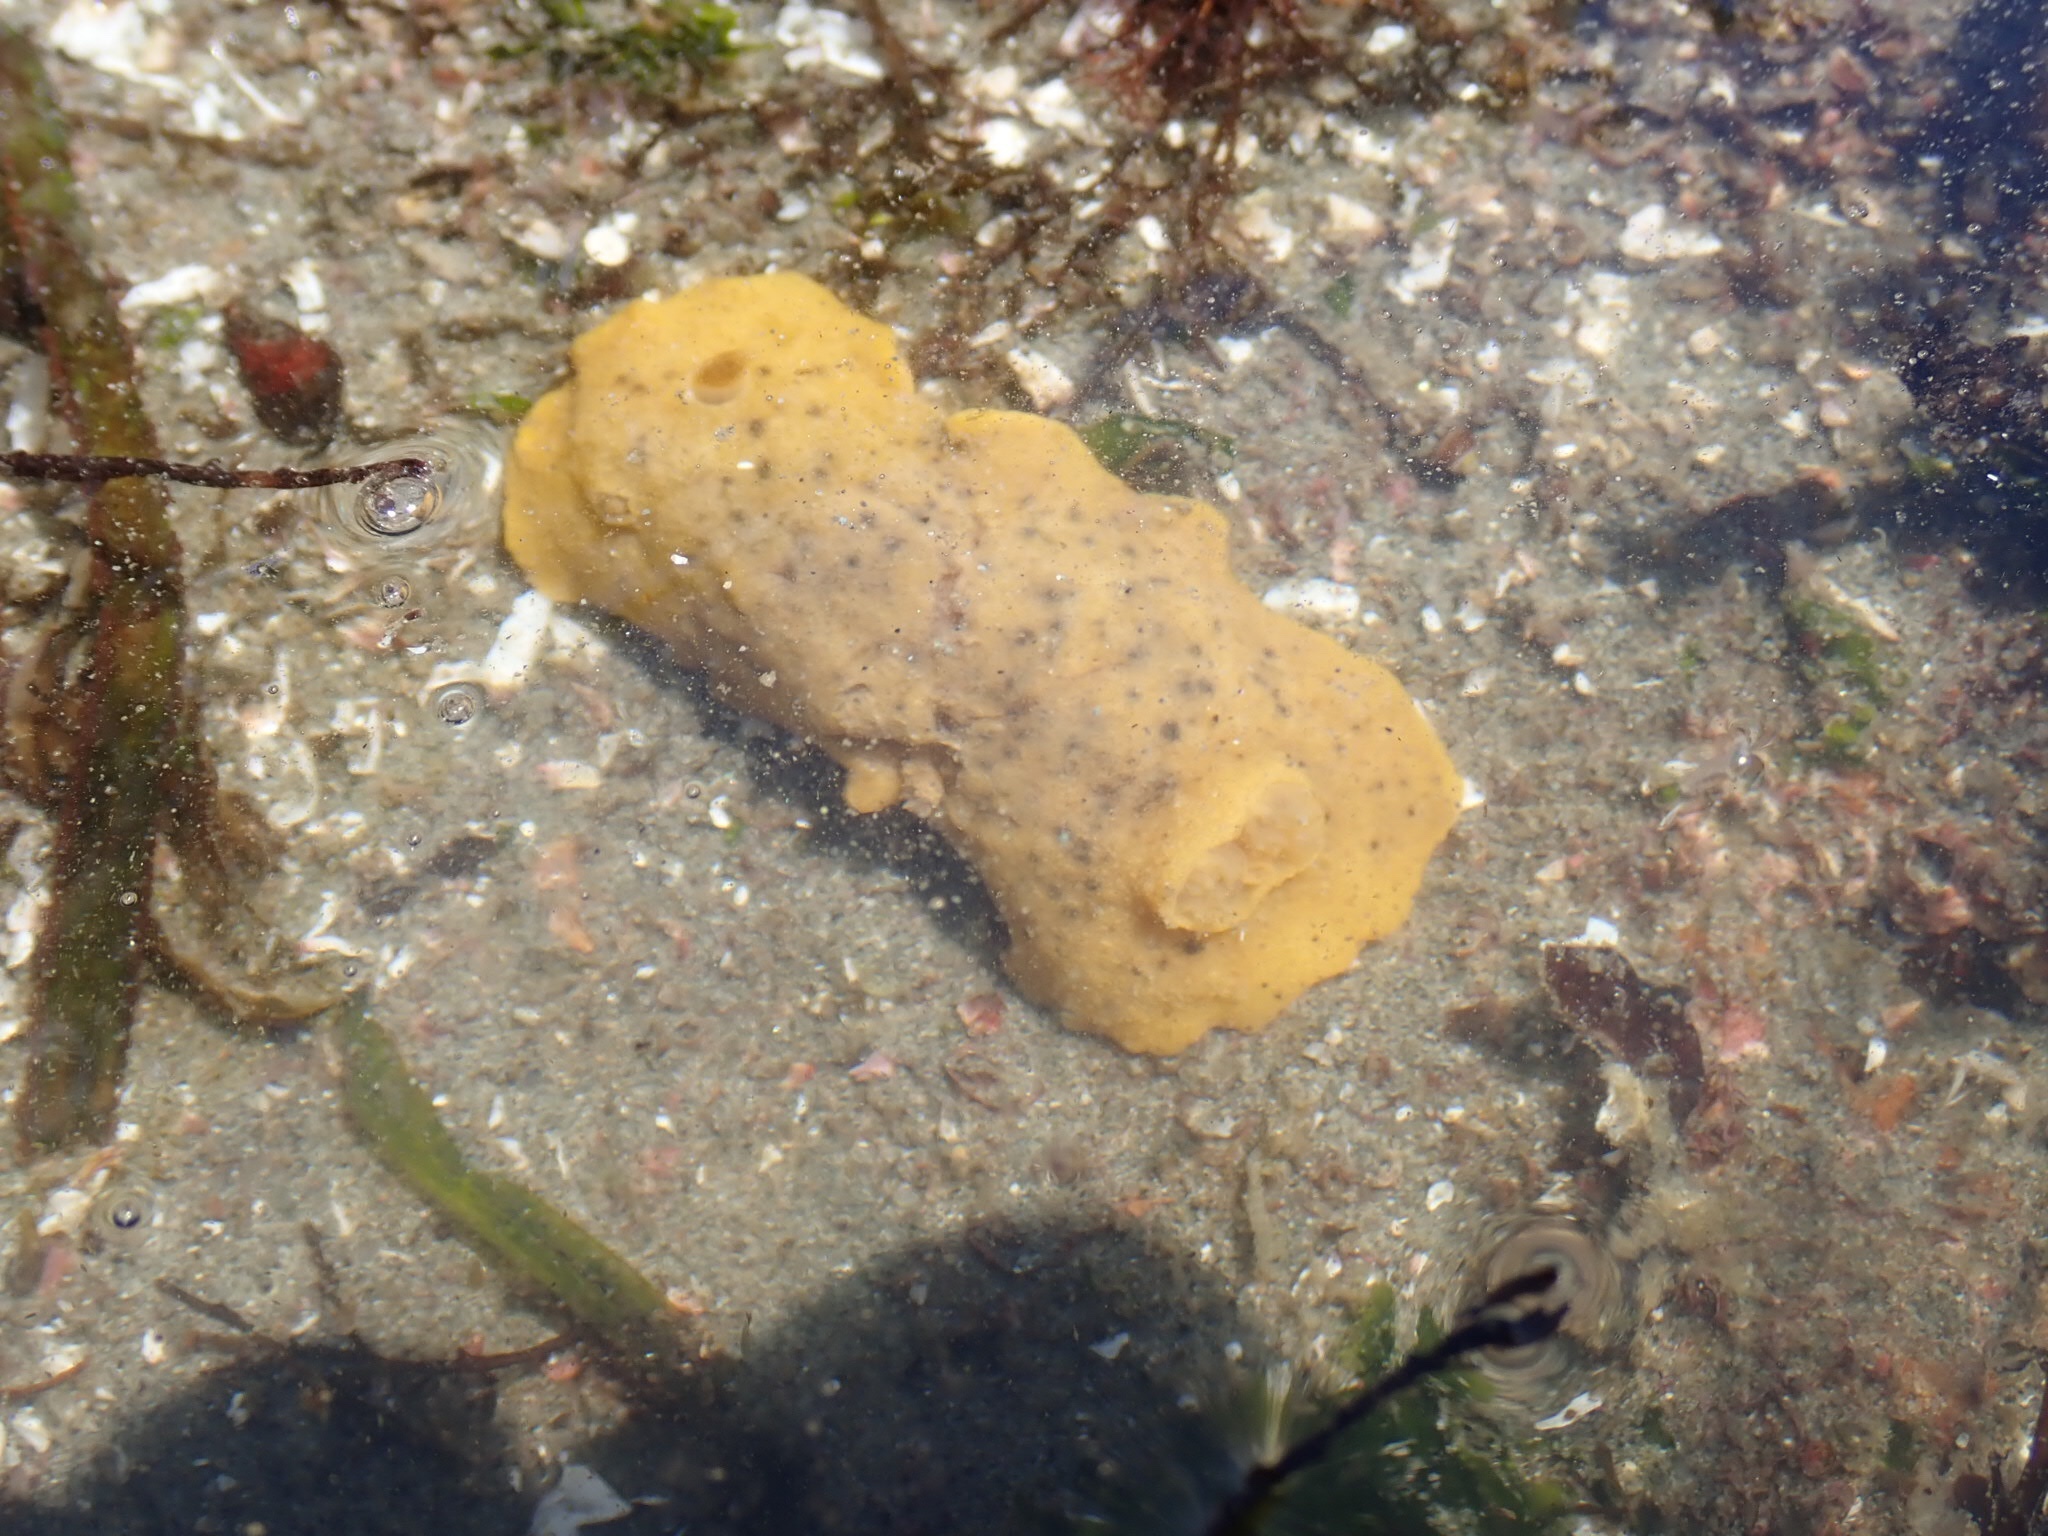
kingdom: Animalia
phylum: Mollusca
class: Gastropoda
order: Nudibranchia
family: Discodorididae
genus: Geitodoris
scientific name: Geitodoris heathi
